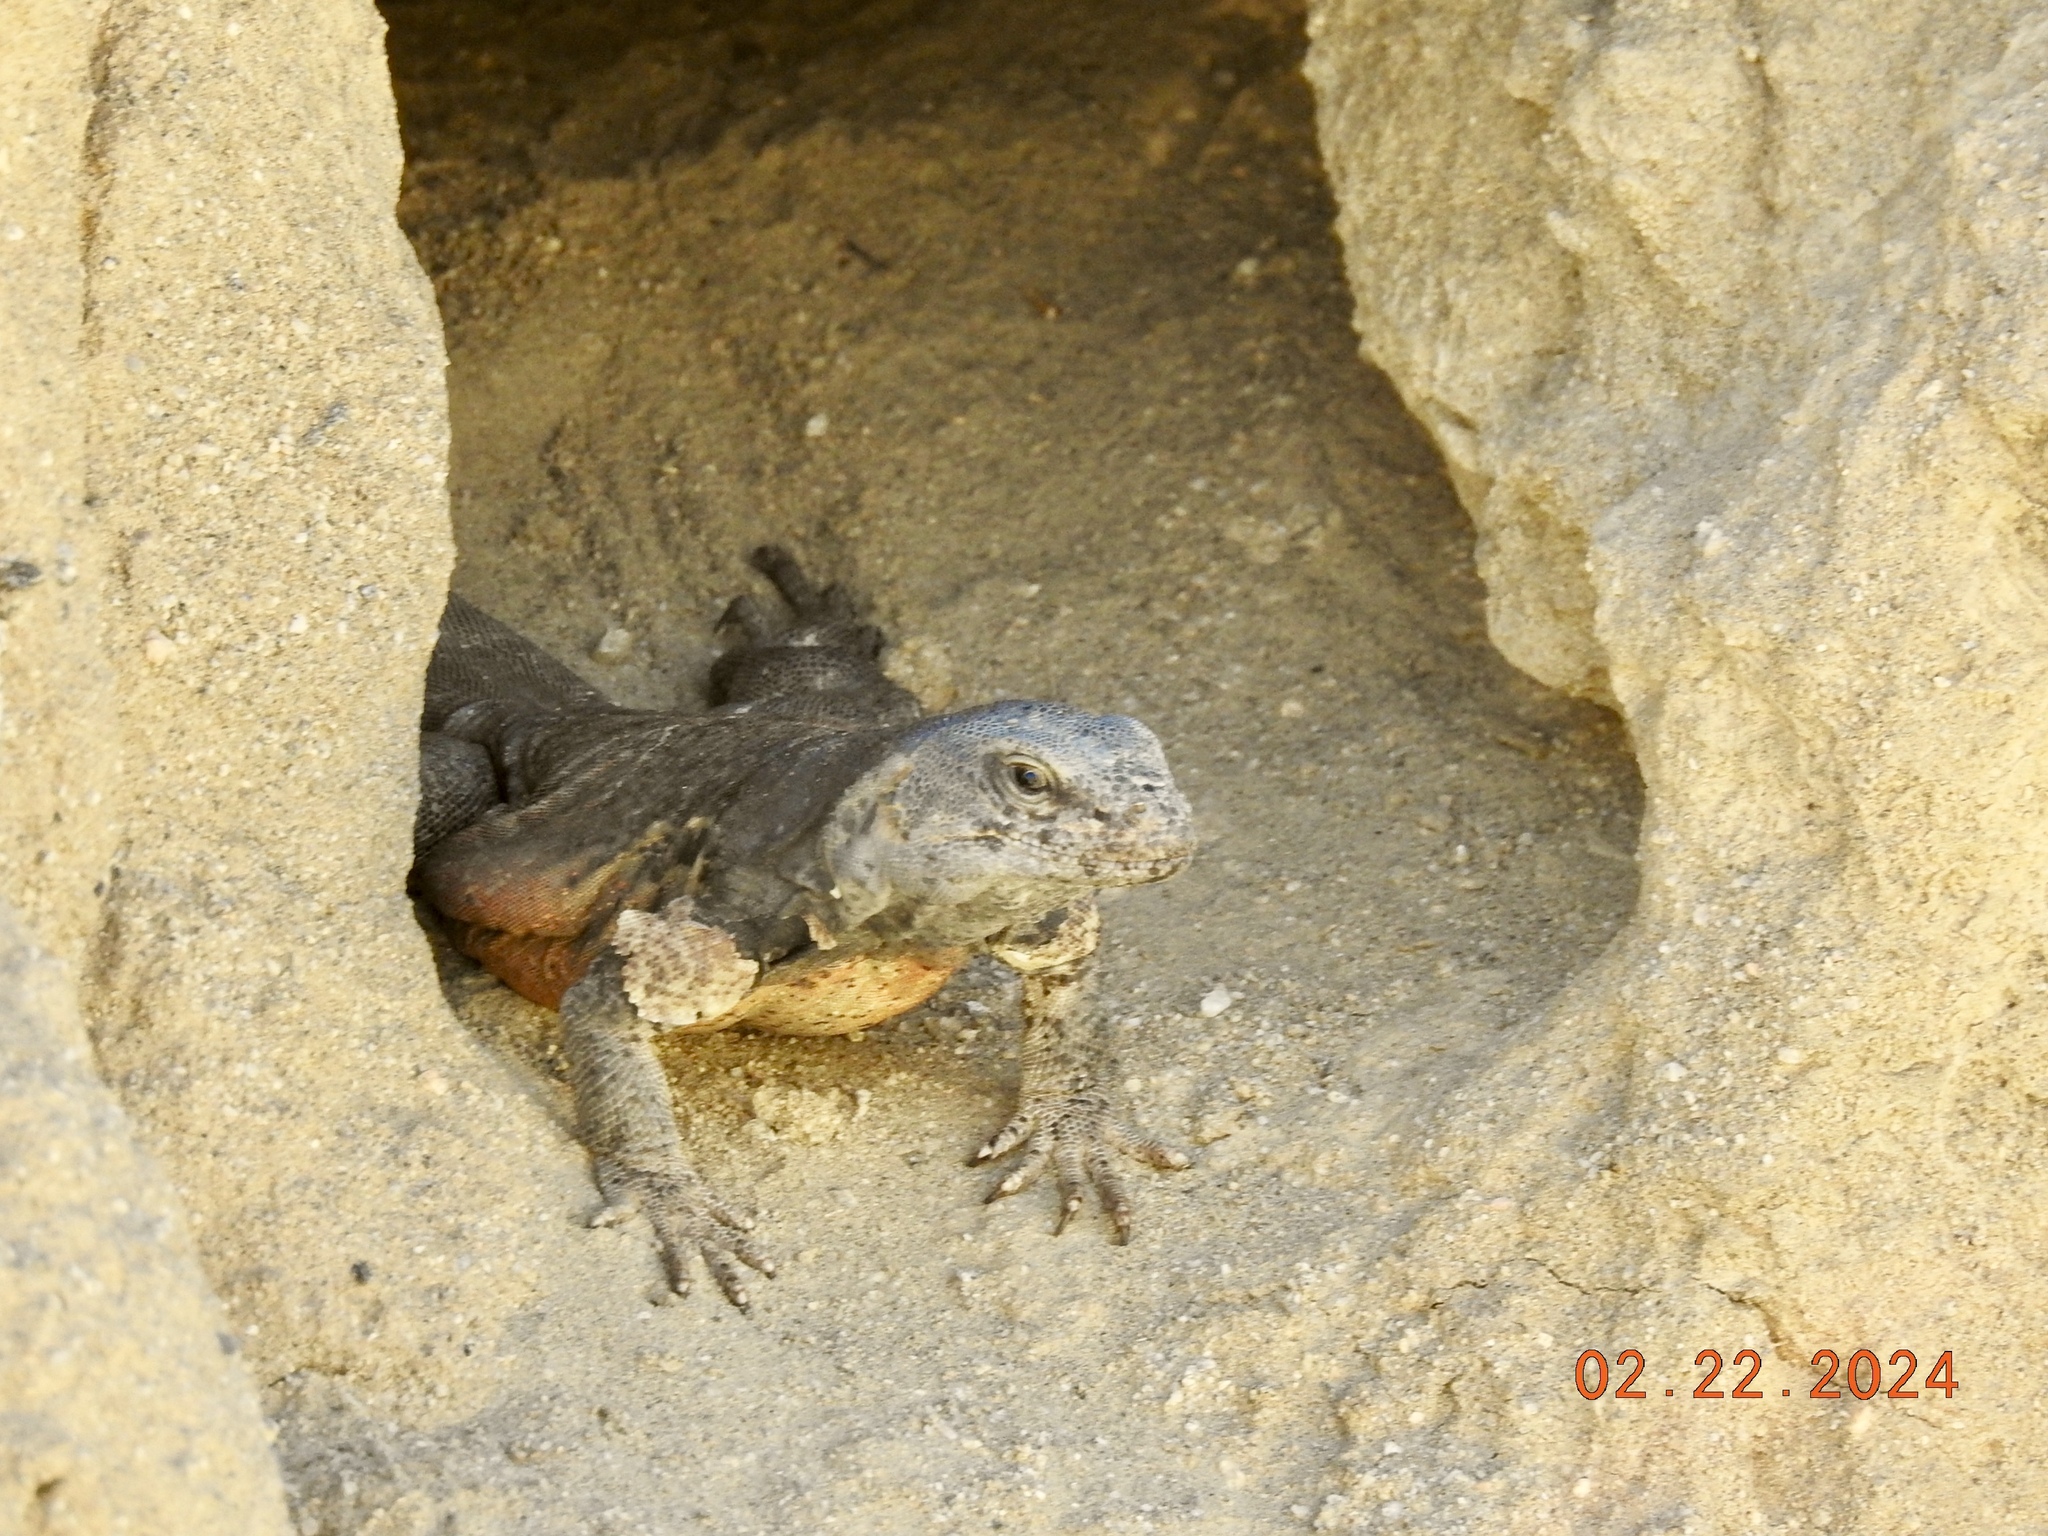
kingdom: Animalia
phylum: Chordata
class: Squamata
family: Iguanidae
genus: Sauromalus
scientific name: Sauromalus ater
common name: Northern chuckwalla
